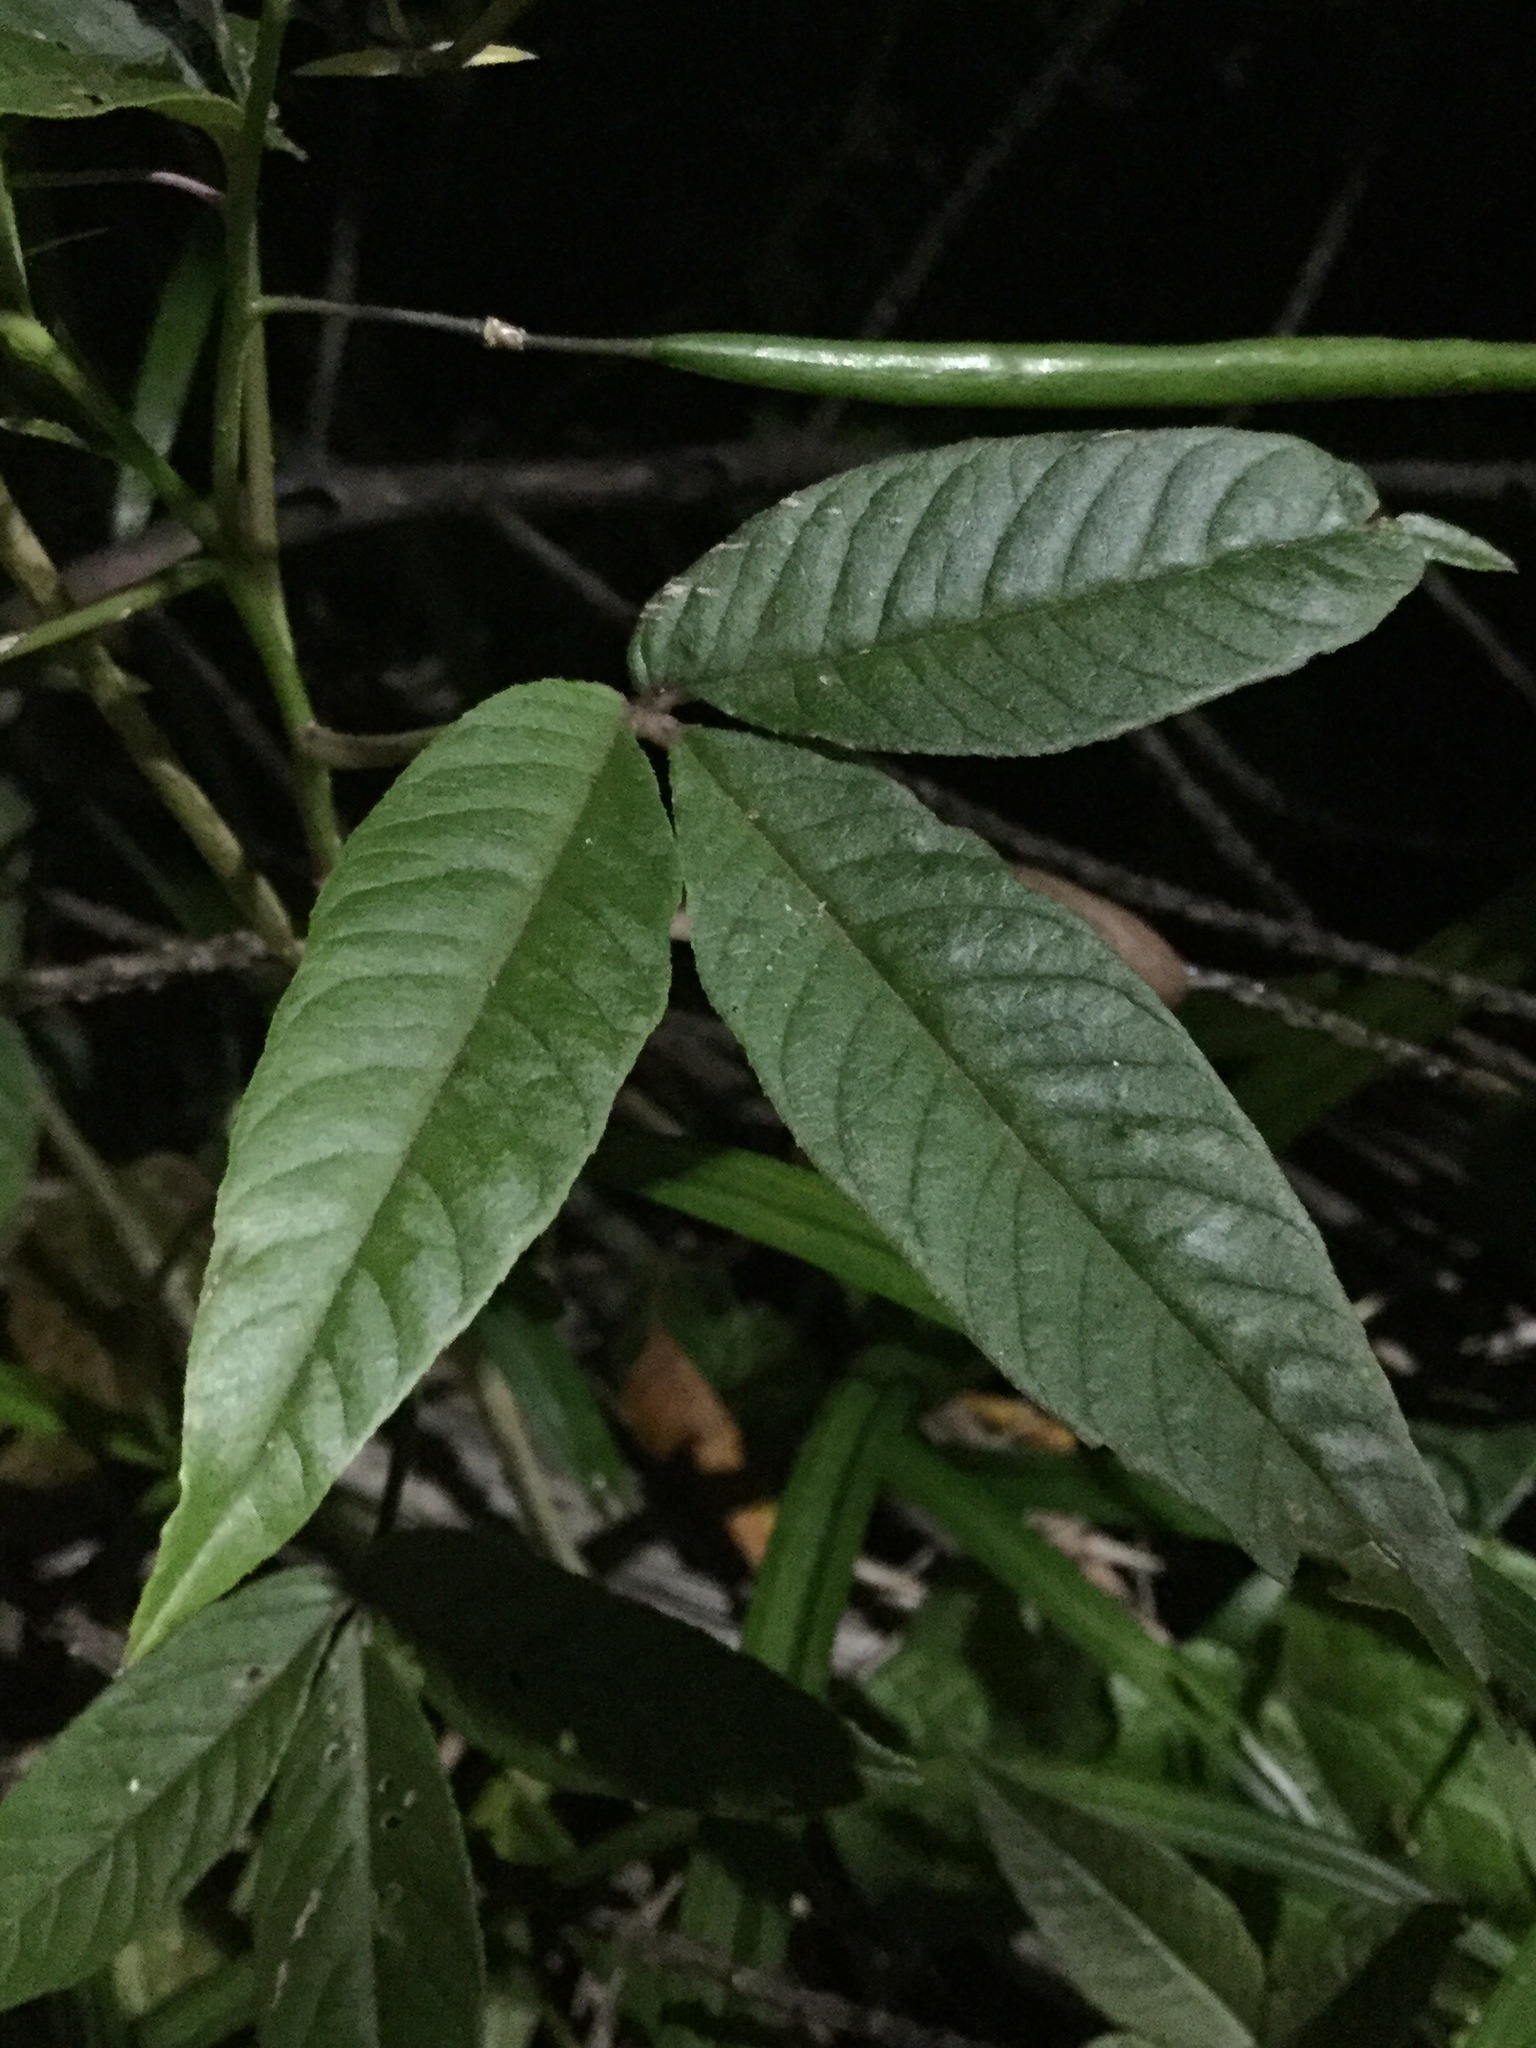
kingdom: Plantae
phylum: Tracheophyta
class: Magnoliopsida
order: Brassicales
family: Cleomaceae
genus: Cleoserrata
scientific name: Cleoserrata serrata
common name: Toothed spiderflower
